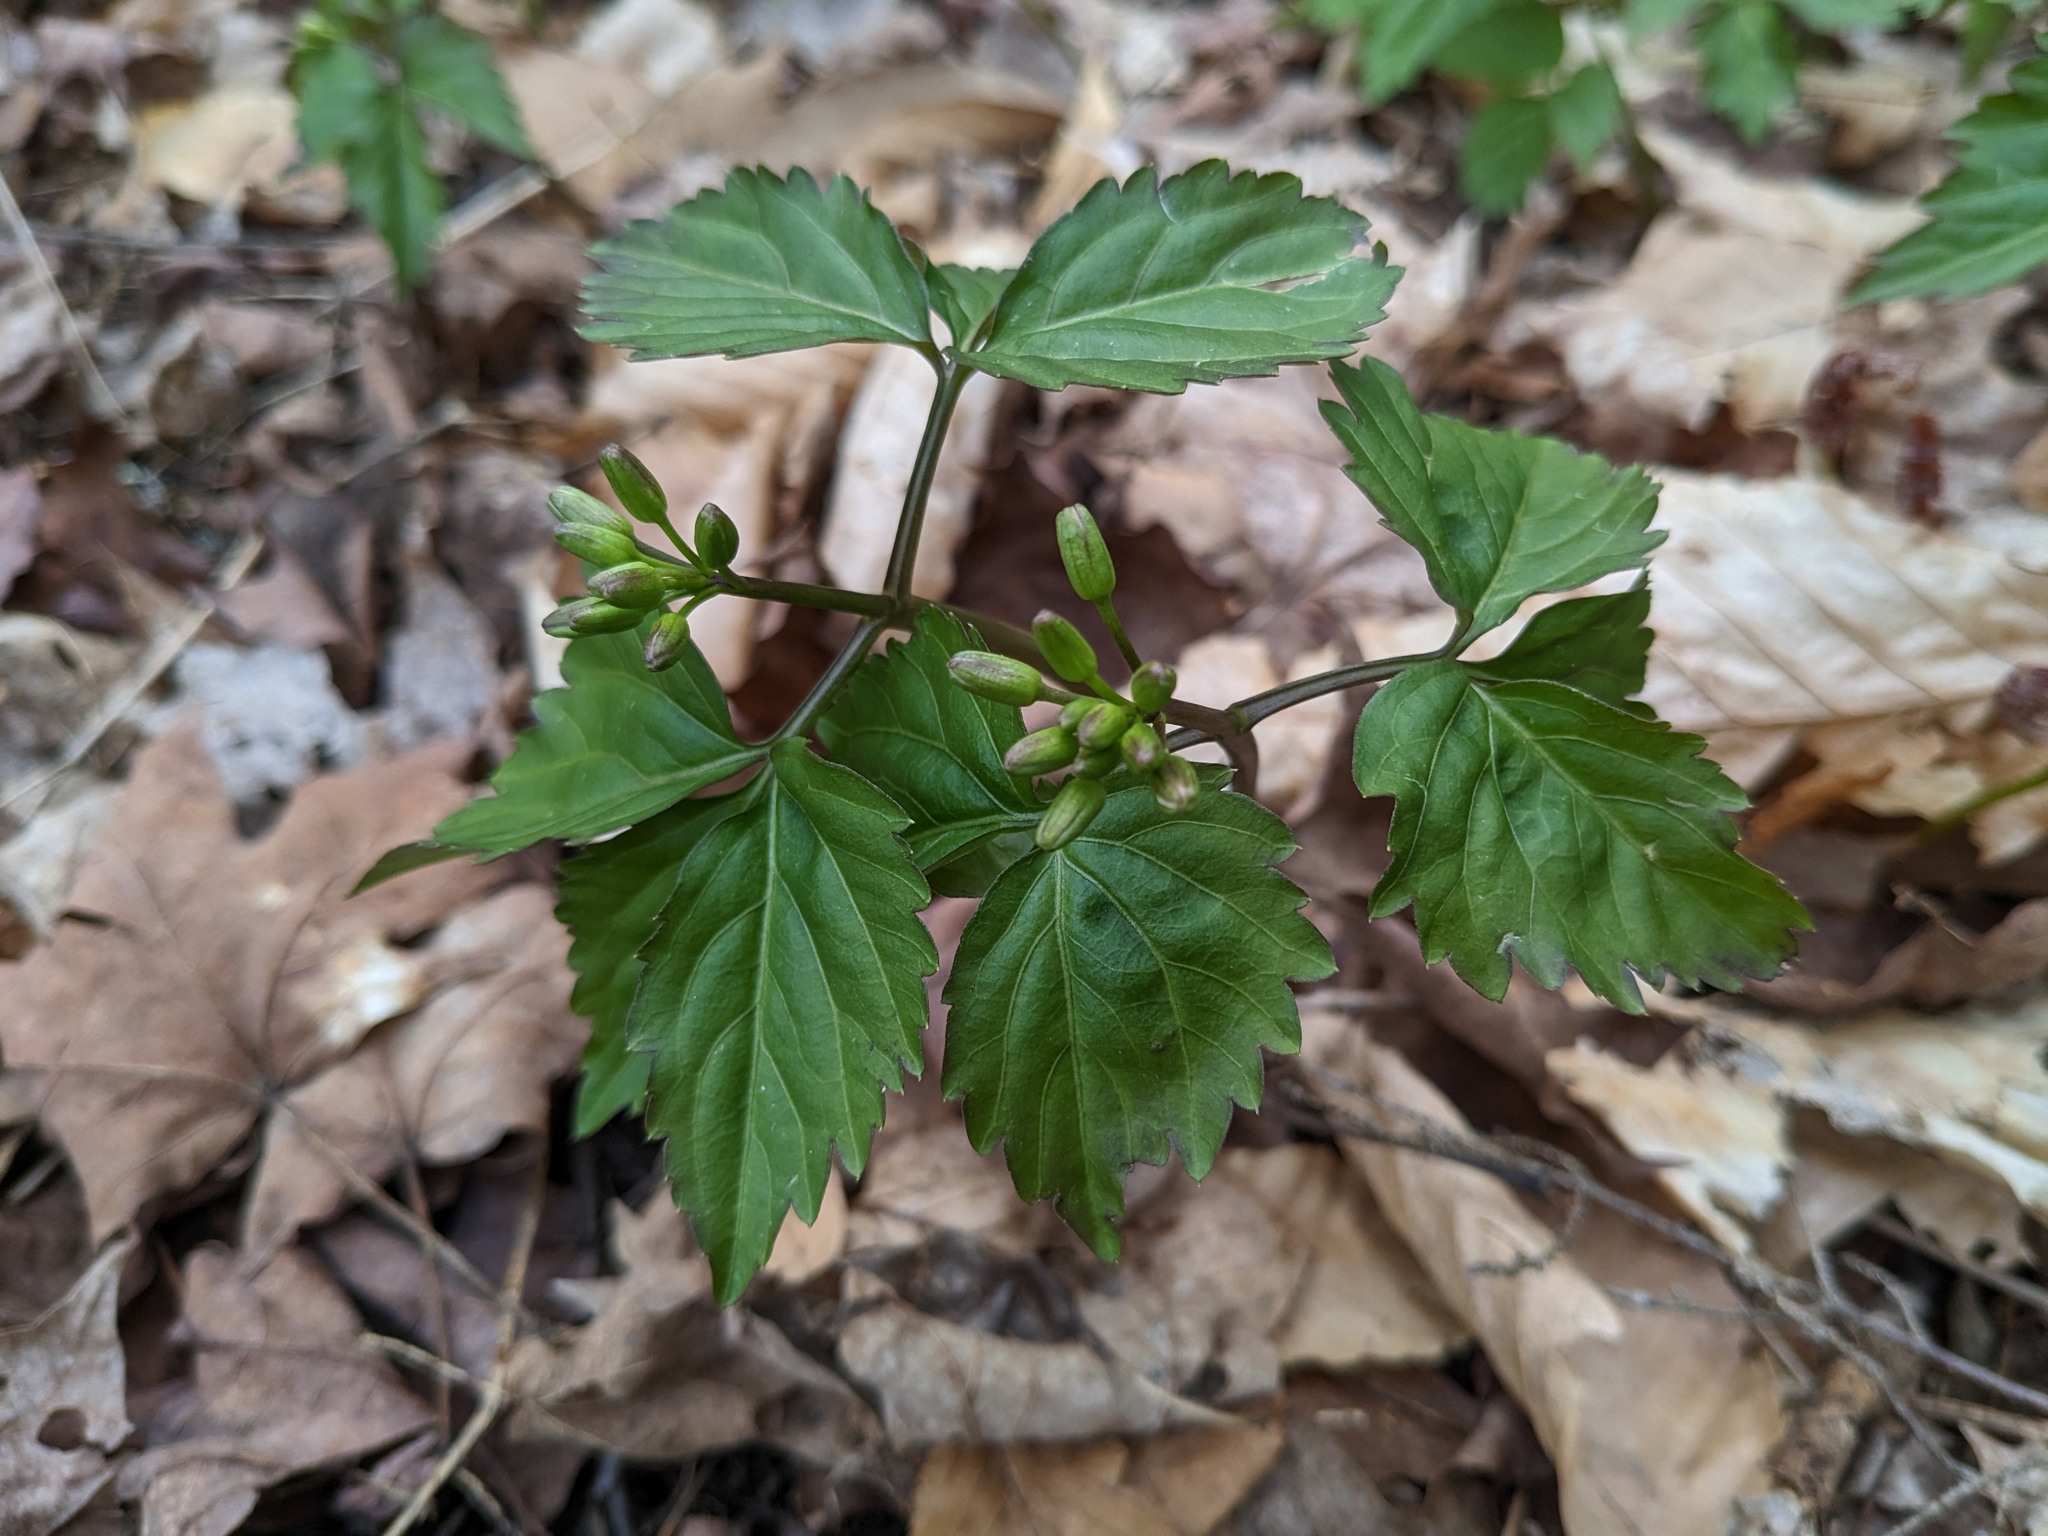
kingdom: Plantae
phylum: Tracheophyta
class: Magnoliopsida
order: Brassicales
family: Brassicaceae
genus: Cardamine
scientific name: Cardamine diphylla
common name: Broad-leaved toothwort
